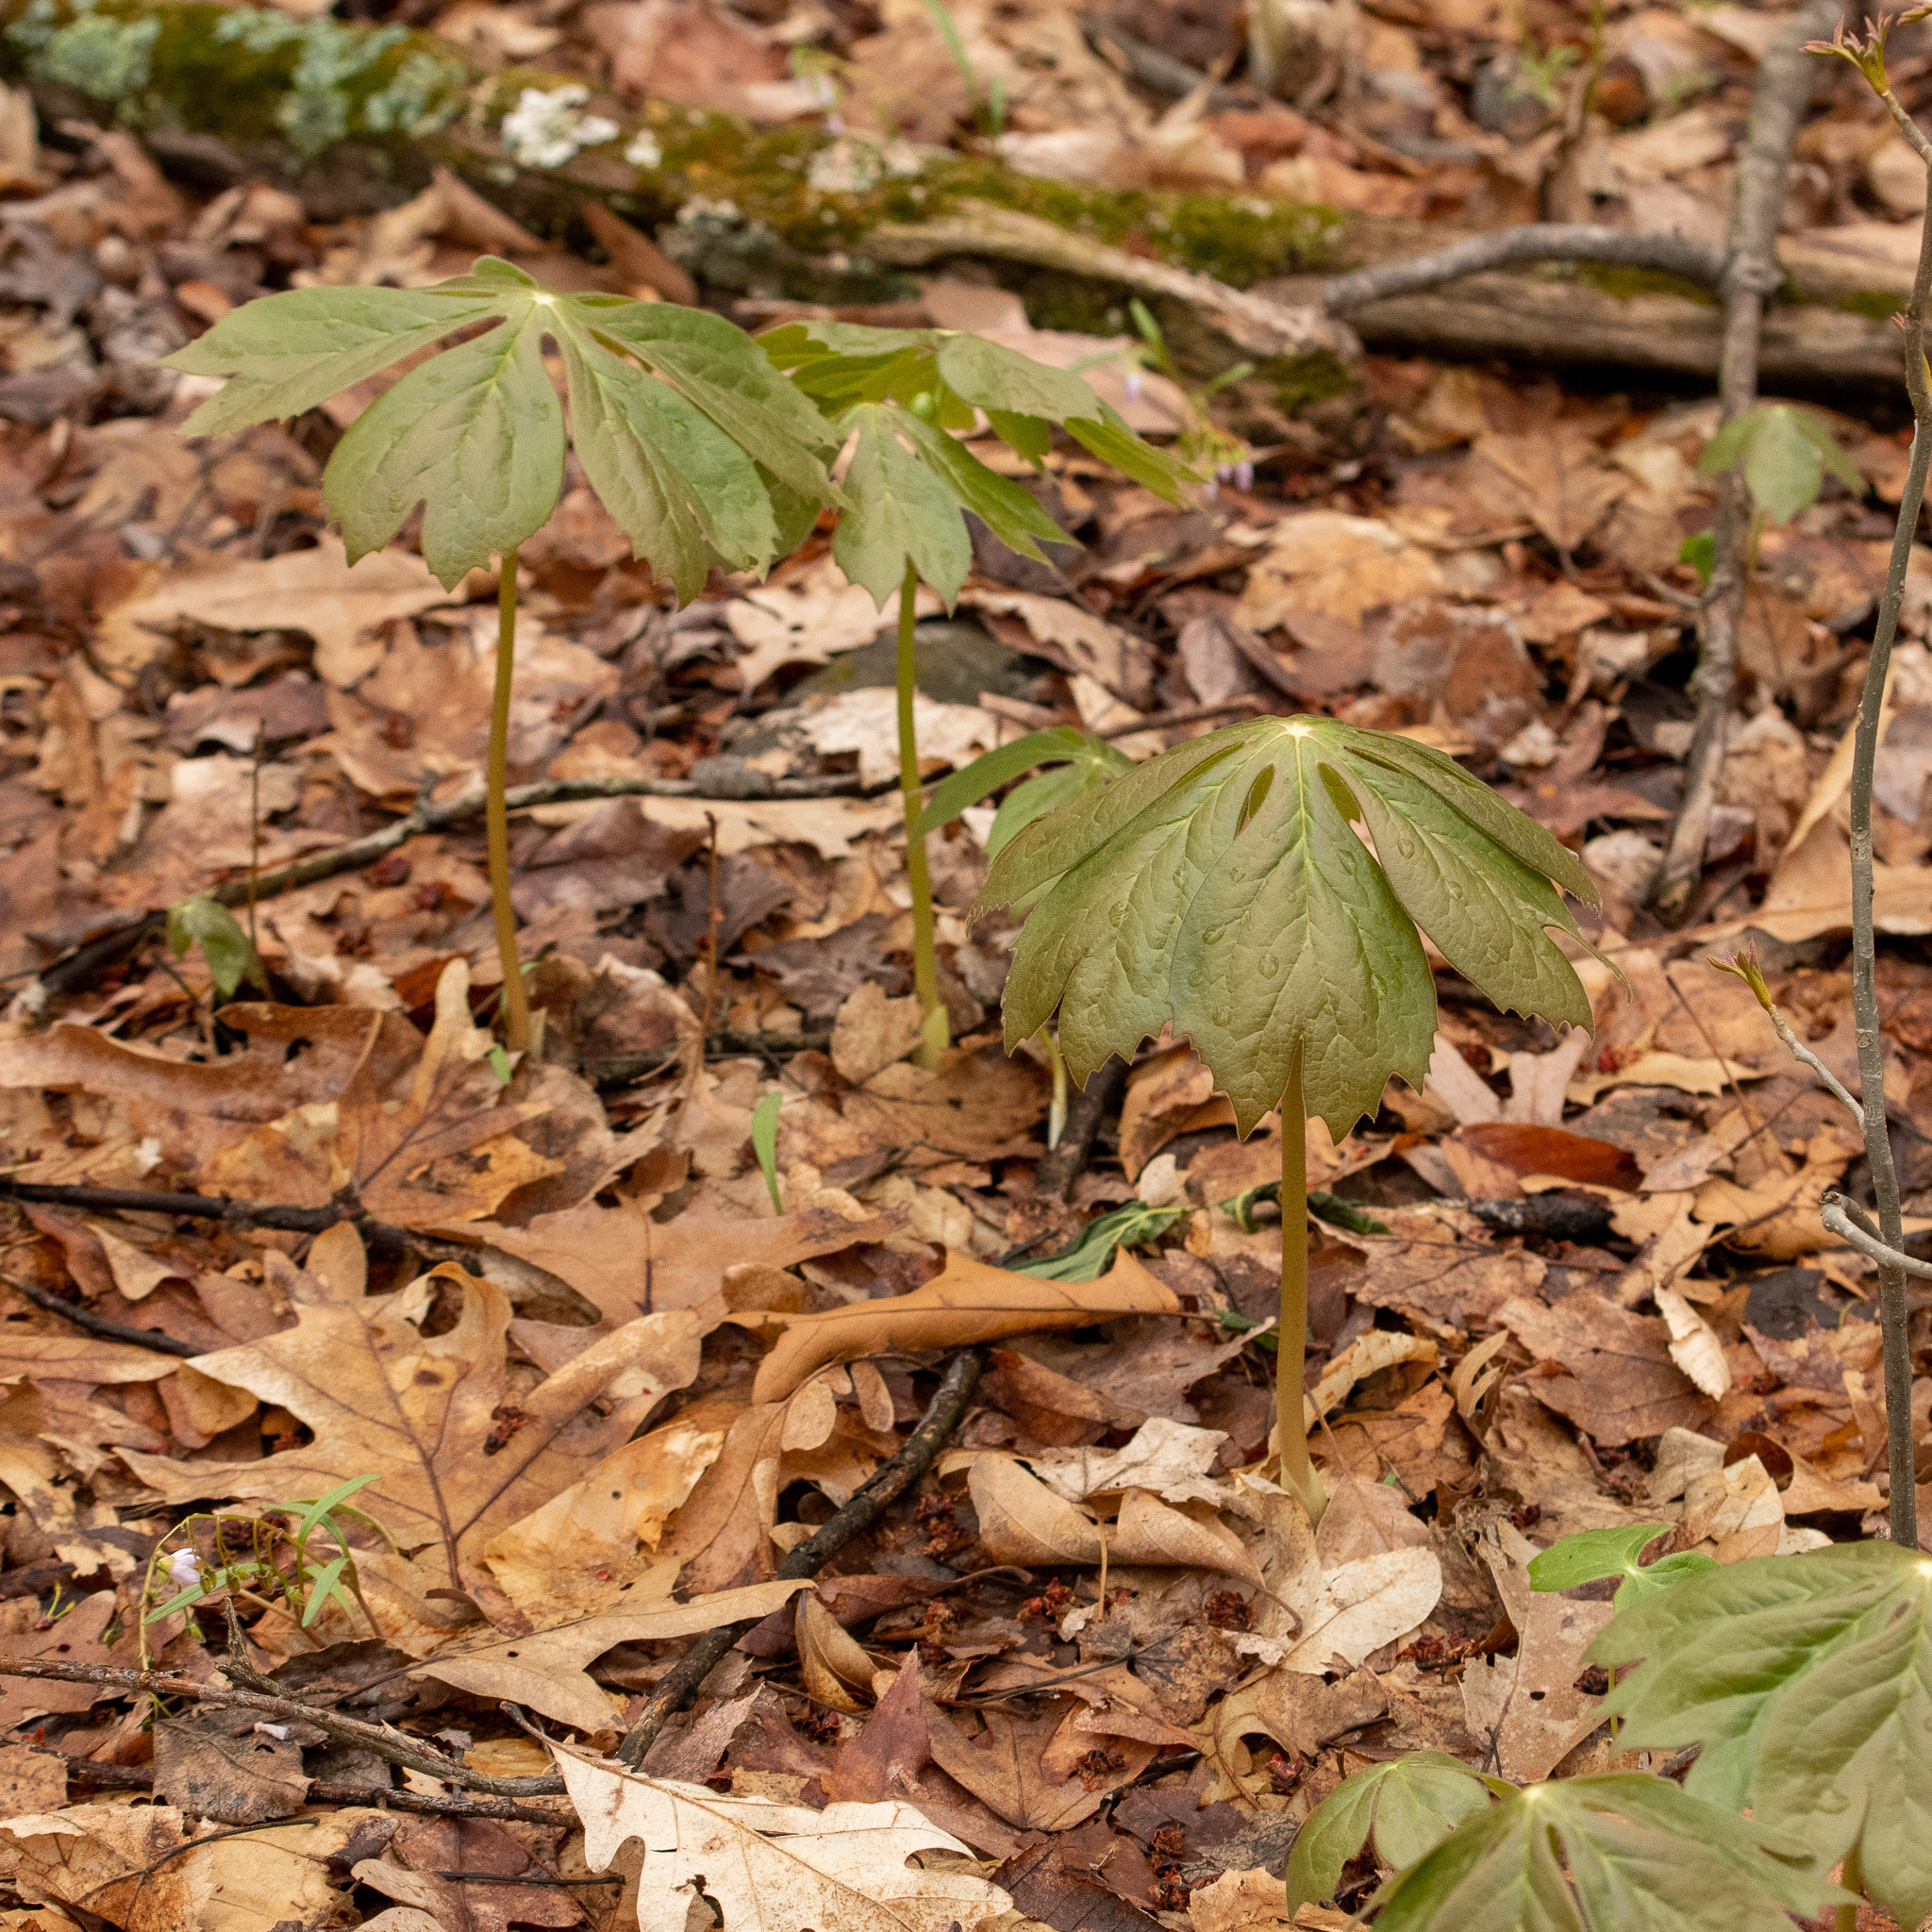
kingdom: Plantae
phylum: Tracheophyta
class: Magnoliopsida
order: Ranunculales
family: Berberidaceae
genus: Podophyllum
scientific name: Podophyllum peltatum
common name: Wild mandrake
